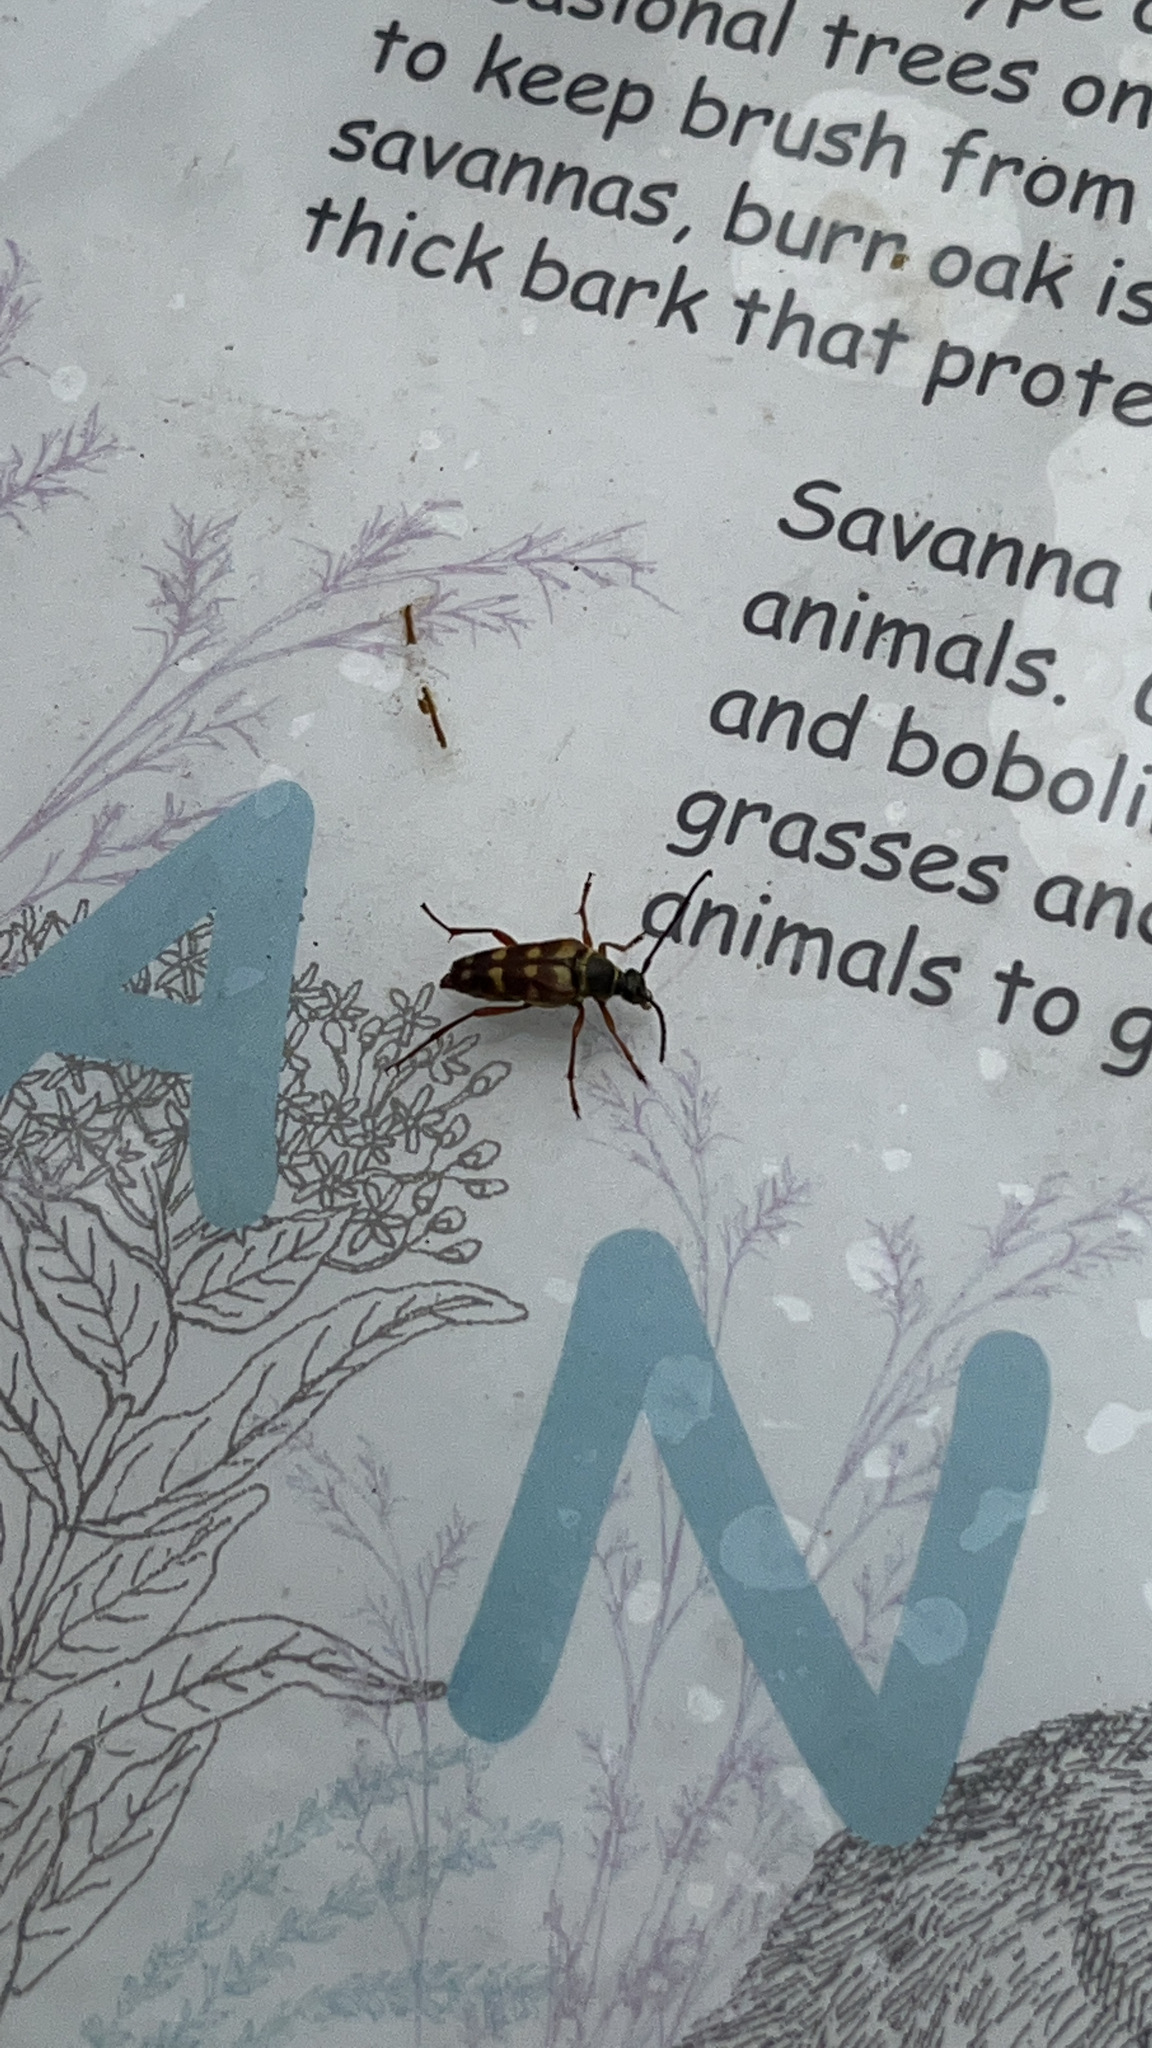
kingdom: Animalia
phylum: Arthropoda
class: Insecta
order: Coleoptera
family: Cerambycidae
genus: Typocerus
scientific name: Typocerus velutinus
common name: Banded longhorn beetle
